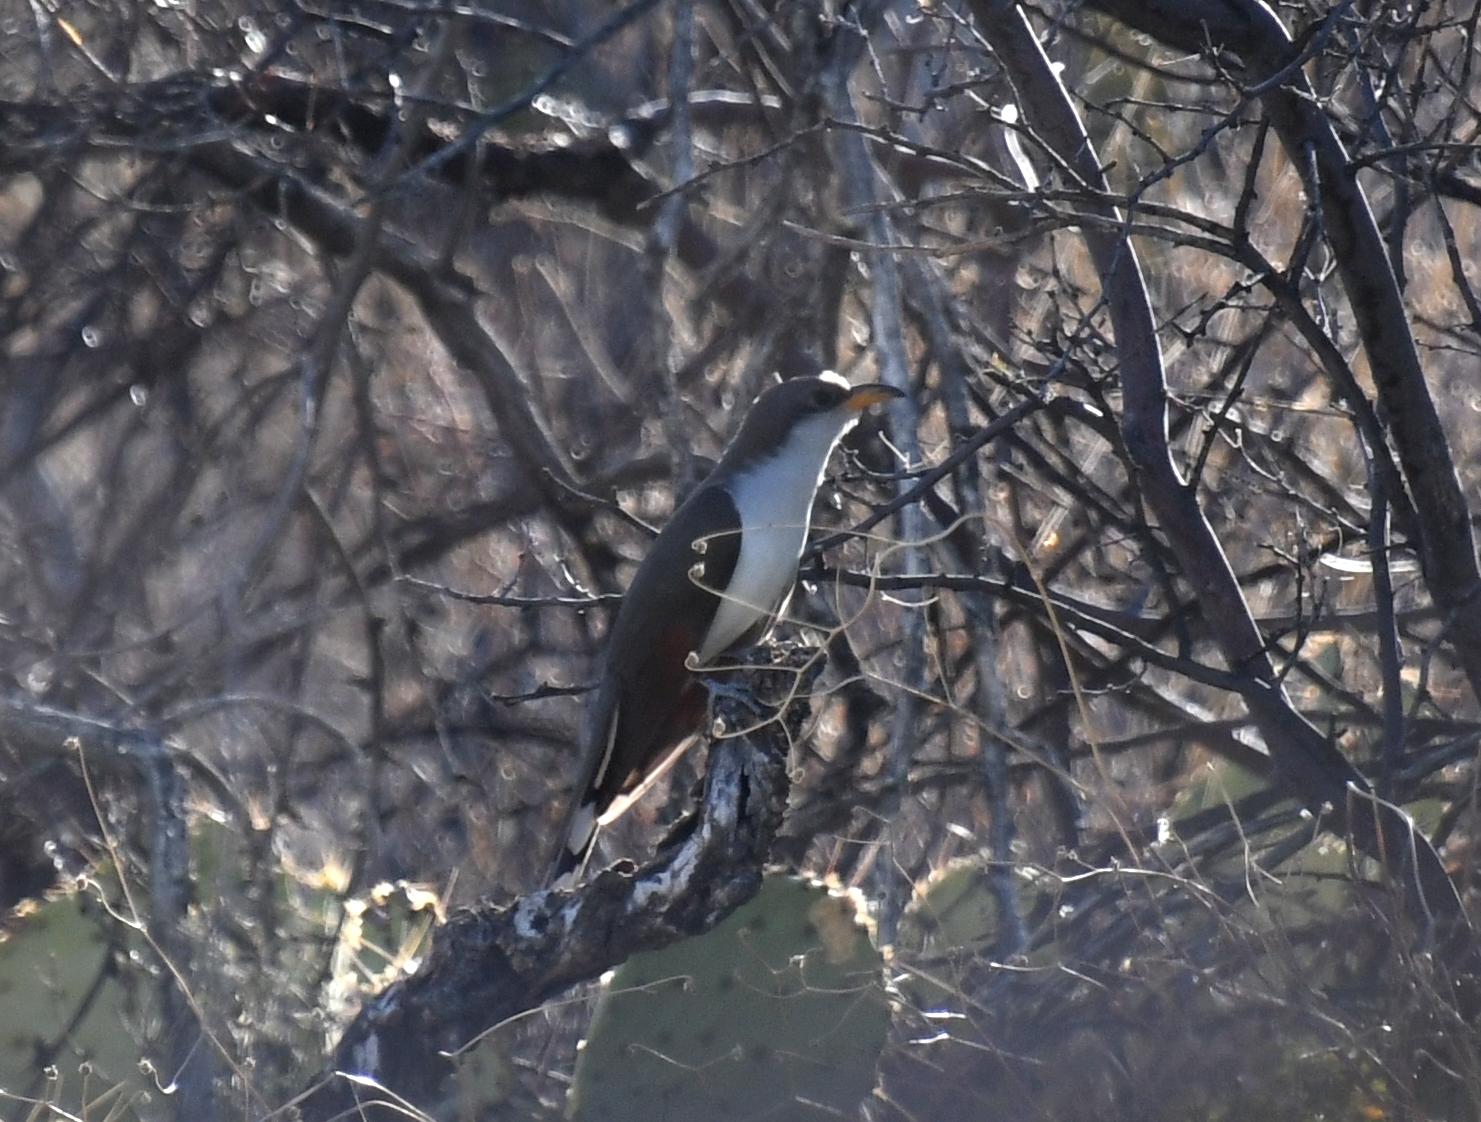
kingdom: Animalia
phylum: Chordata
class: Aves
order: Cuculiformes
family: Cuculidae
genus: Coccyzus
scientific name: Coccyzus americanus
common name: Yellow-billed cuckoo
